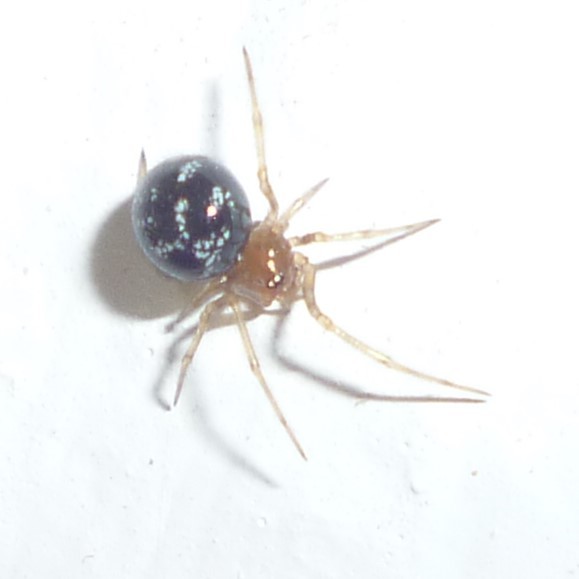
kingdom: Animalia
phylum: Arthropoda
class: Arachnida
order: Araneae
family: Theridiidae
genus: Steatoda
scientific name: Steatoda triangulosa
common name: Triangulate bud spider
